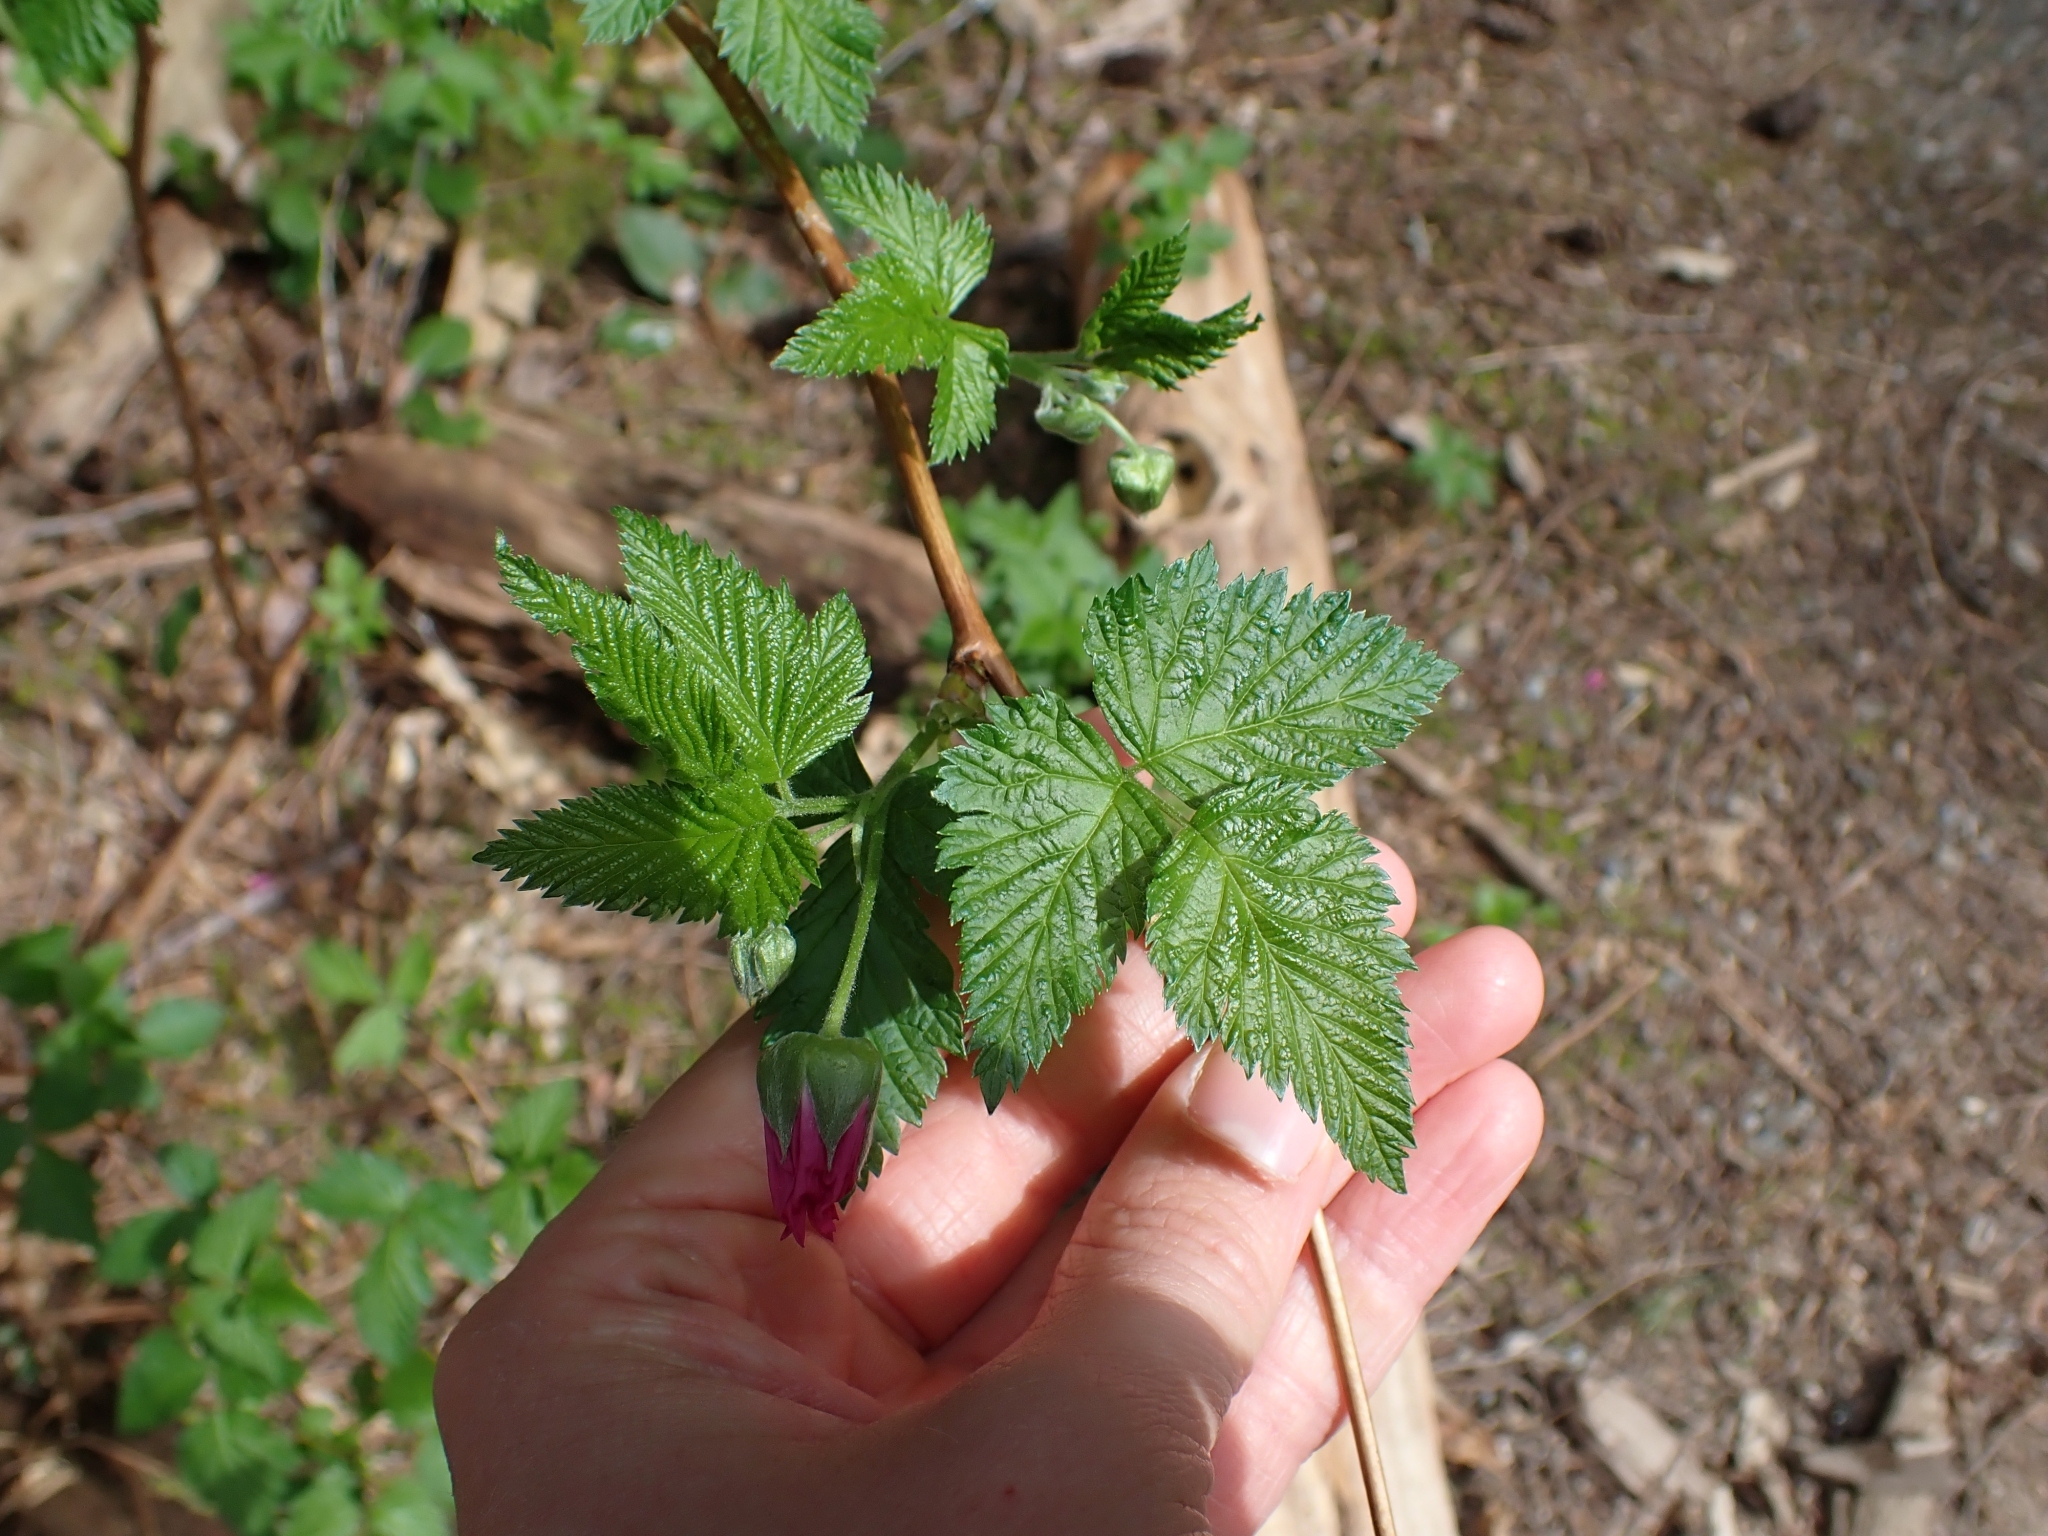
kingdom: Plantae
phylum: Tracheophyta
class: Magnoliopsida
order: Rosales
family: Rosaceae
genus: Rubus
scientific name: Rubus spectabilis
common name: Salmonberry
